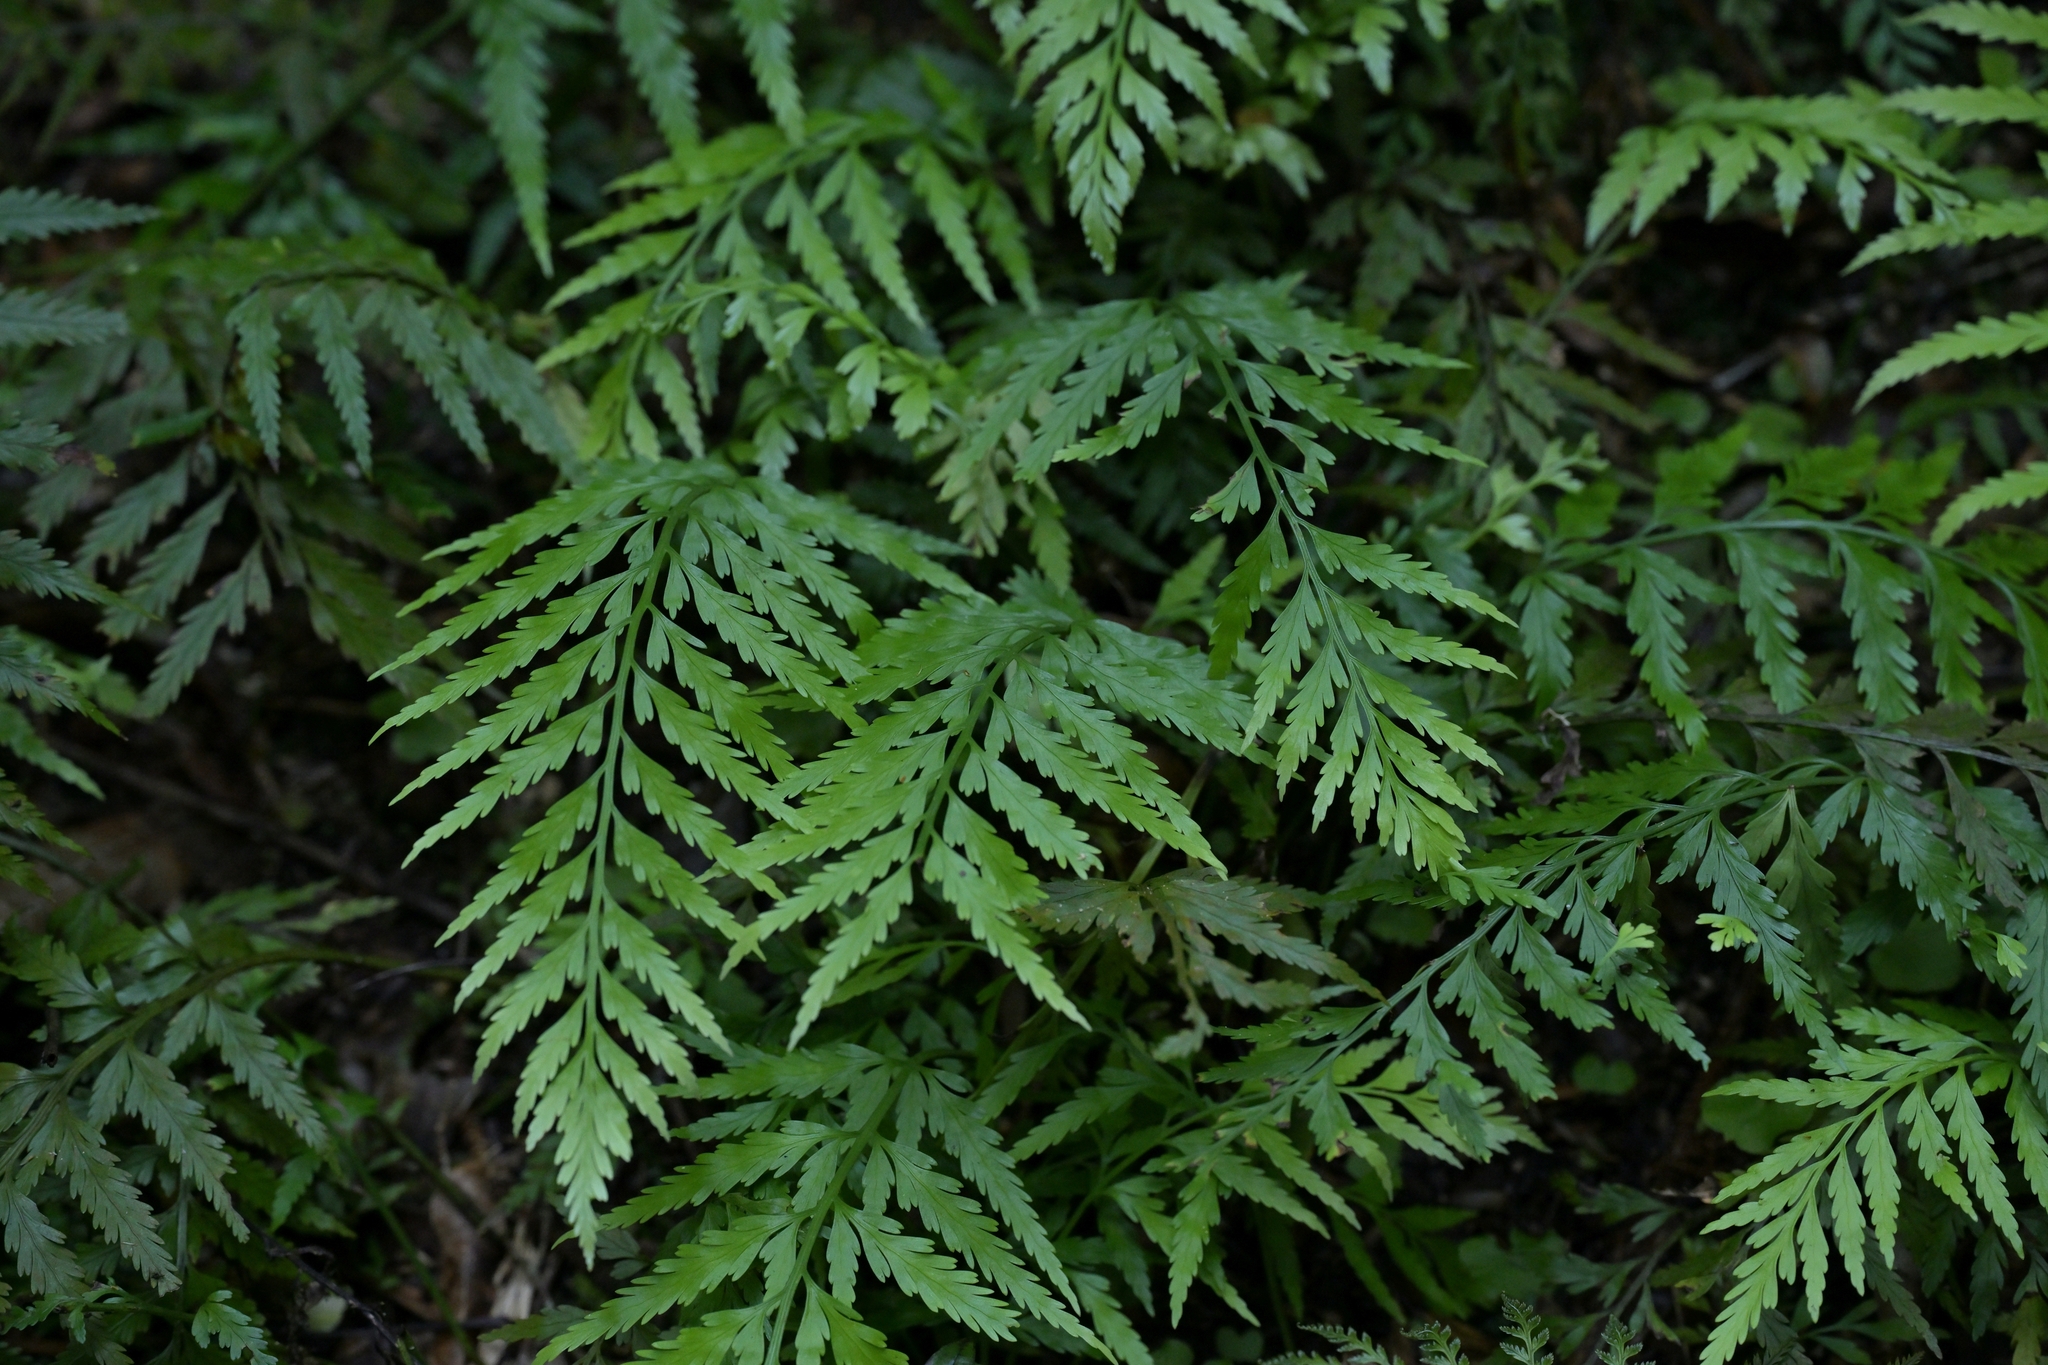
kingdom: Plantae
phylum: Tracheophyta
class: Polypodiopsida
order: Polypodiales
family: Aspleniaceae
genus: Asplenium
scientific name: Asplenium flaccidum
